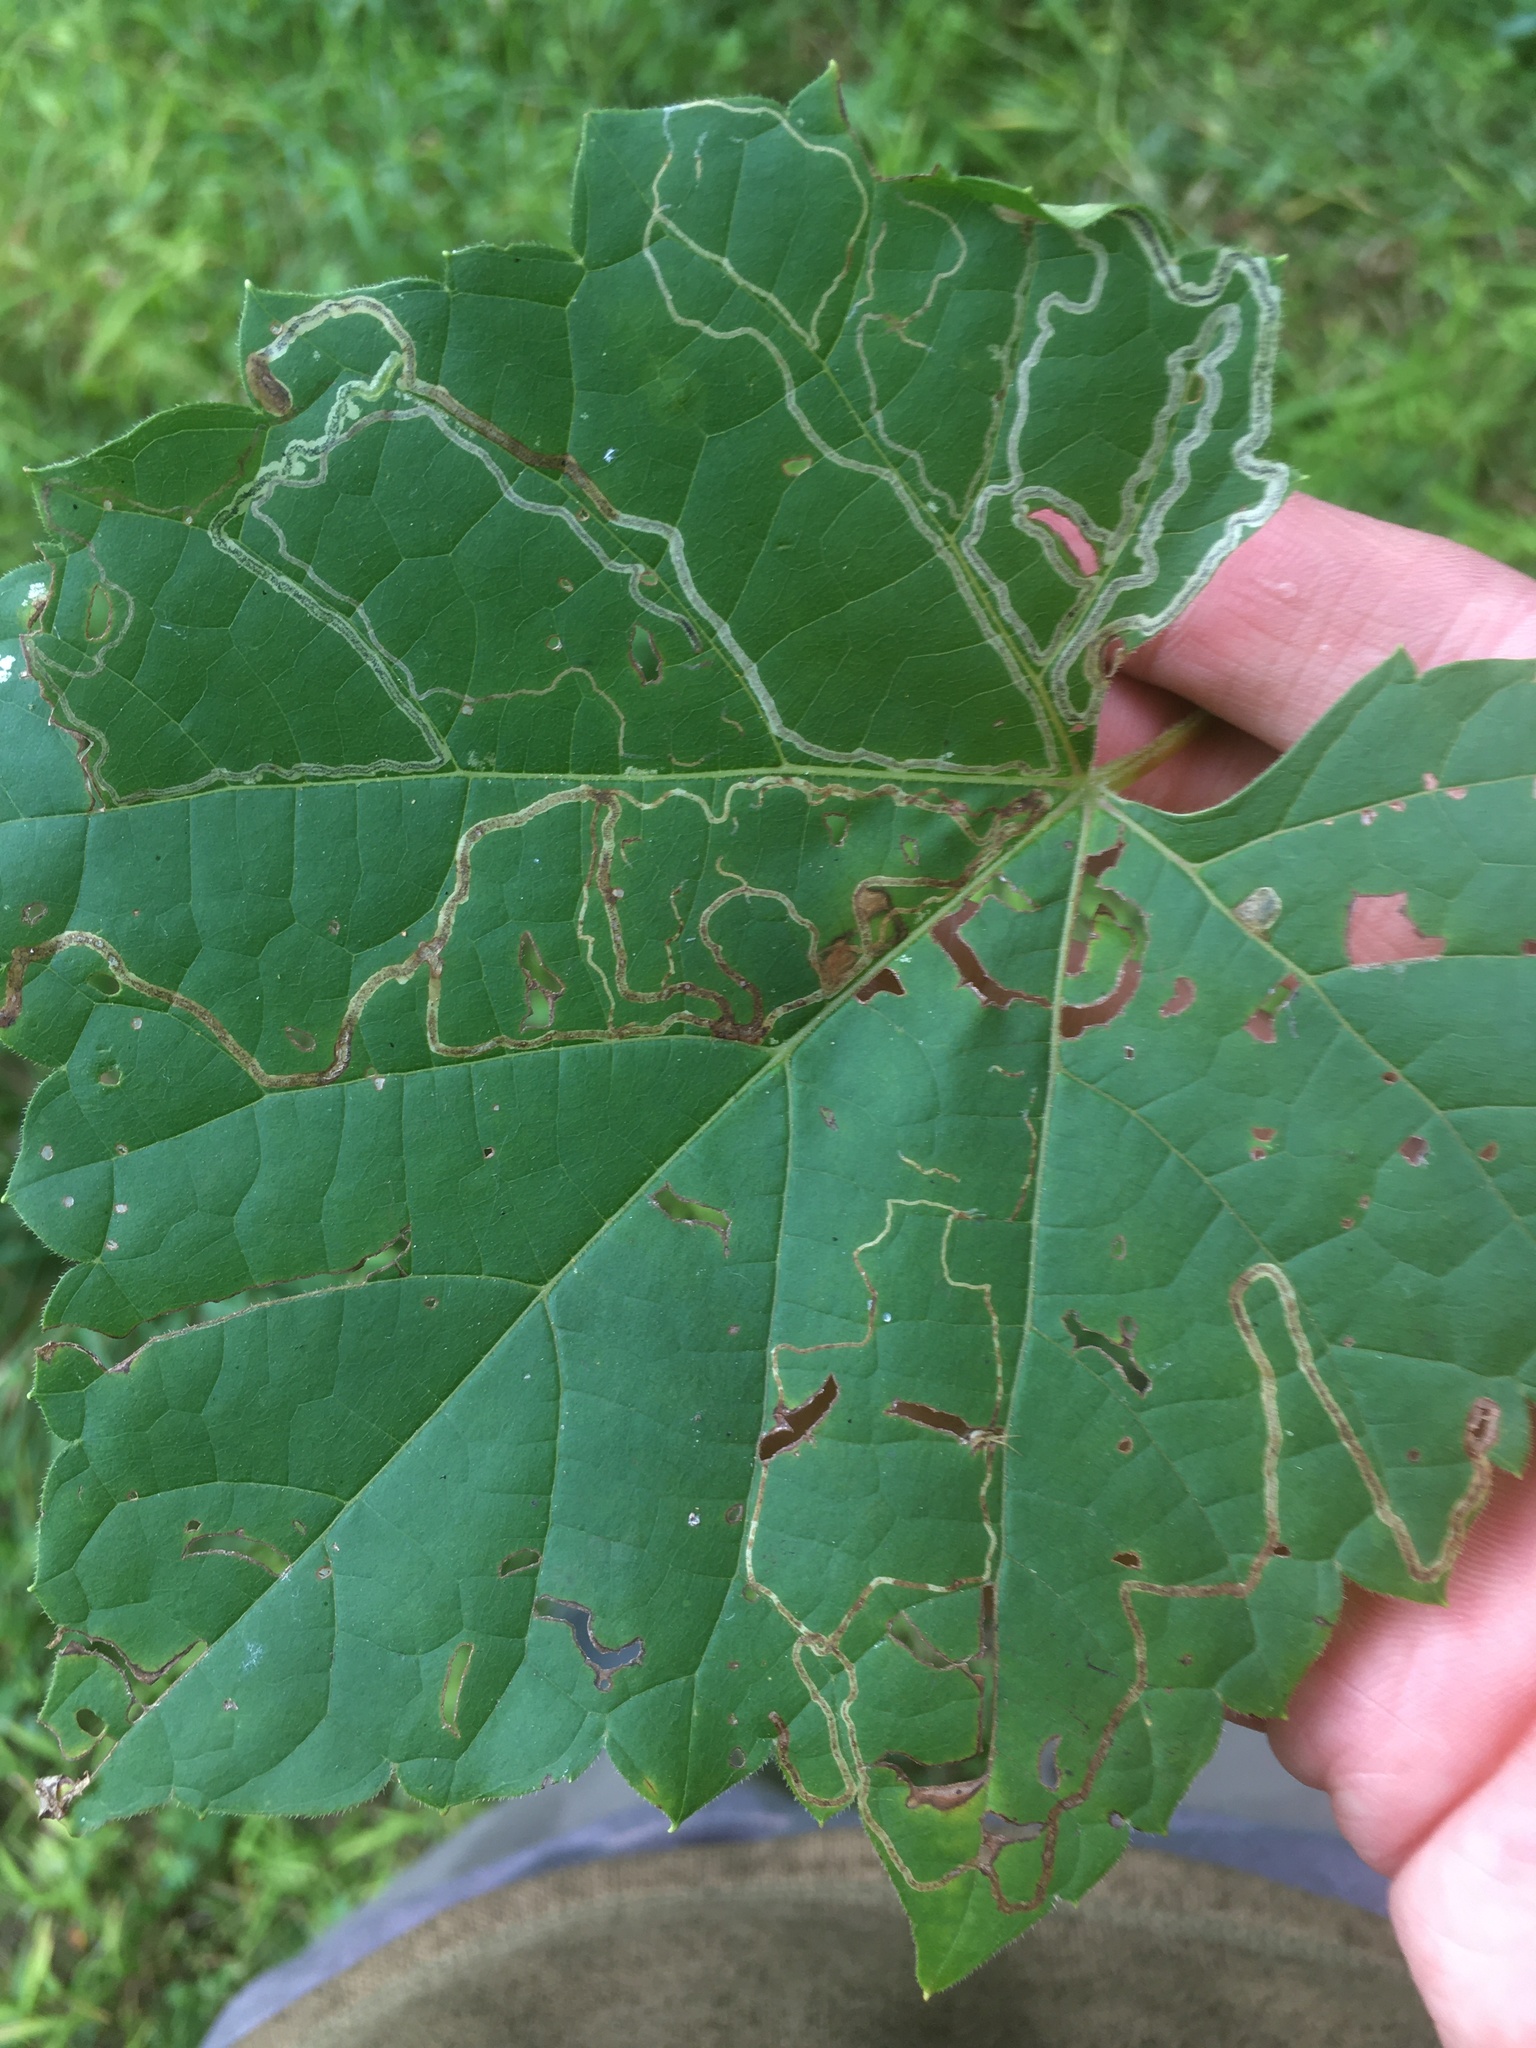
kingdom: Animalia
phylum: Arthropoda
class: Insecta
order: Lepidoptera
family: Gracillariidae
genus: Phyllocnistis
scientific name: Phyllocnistis vitifoliella
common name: Grape leaf-miner moth
